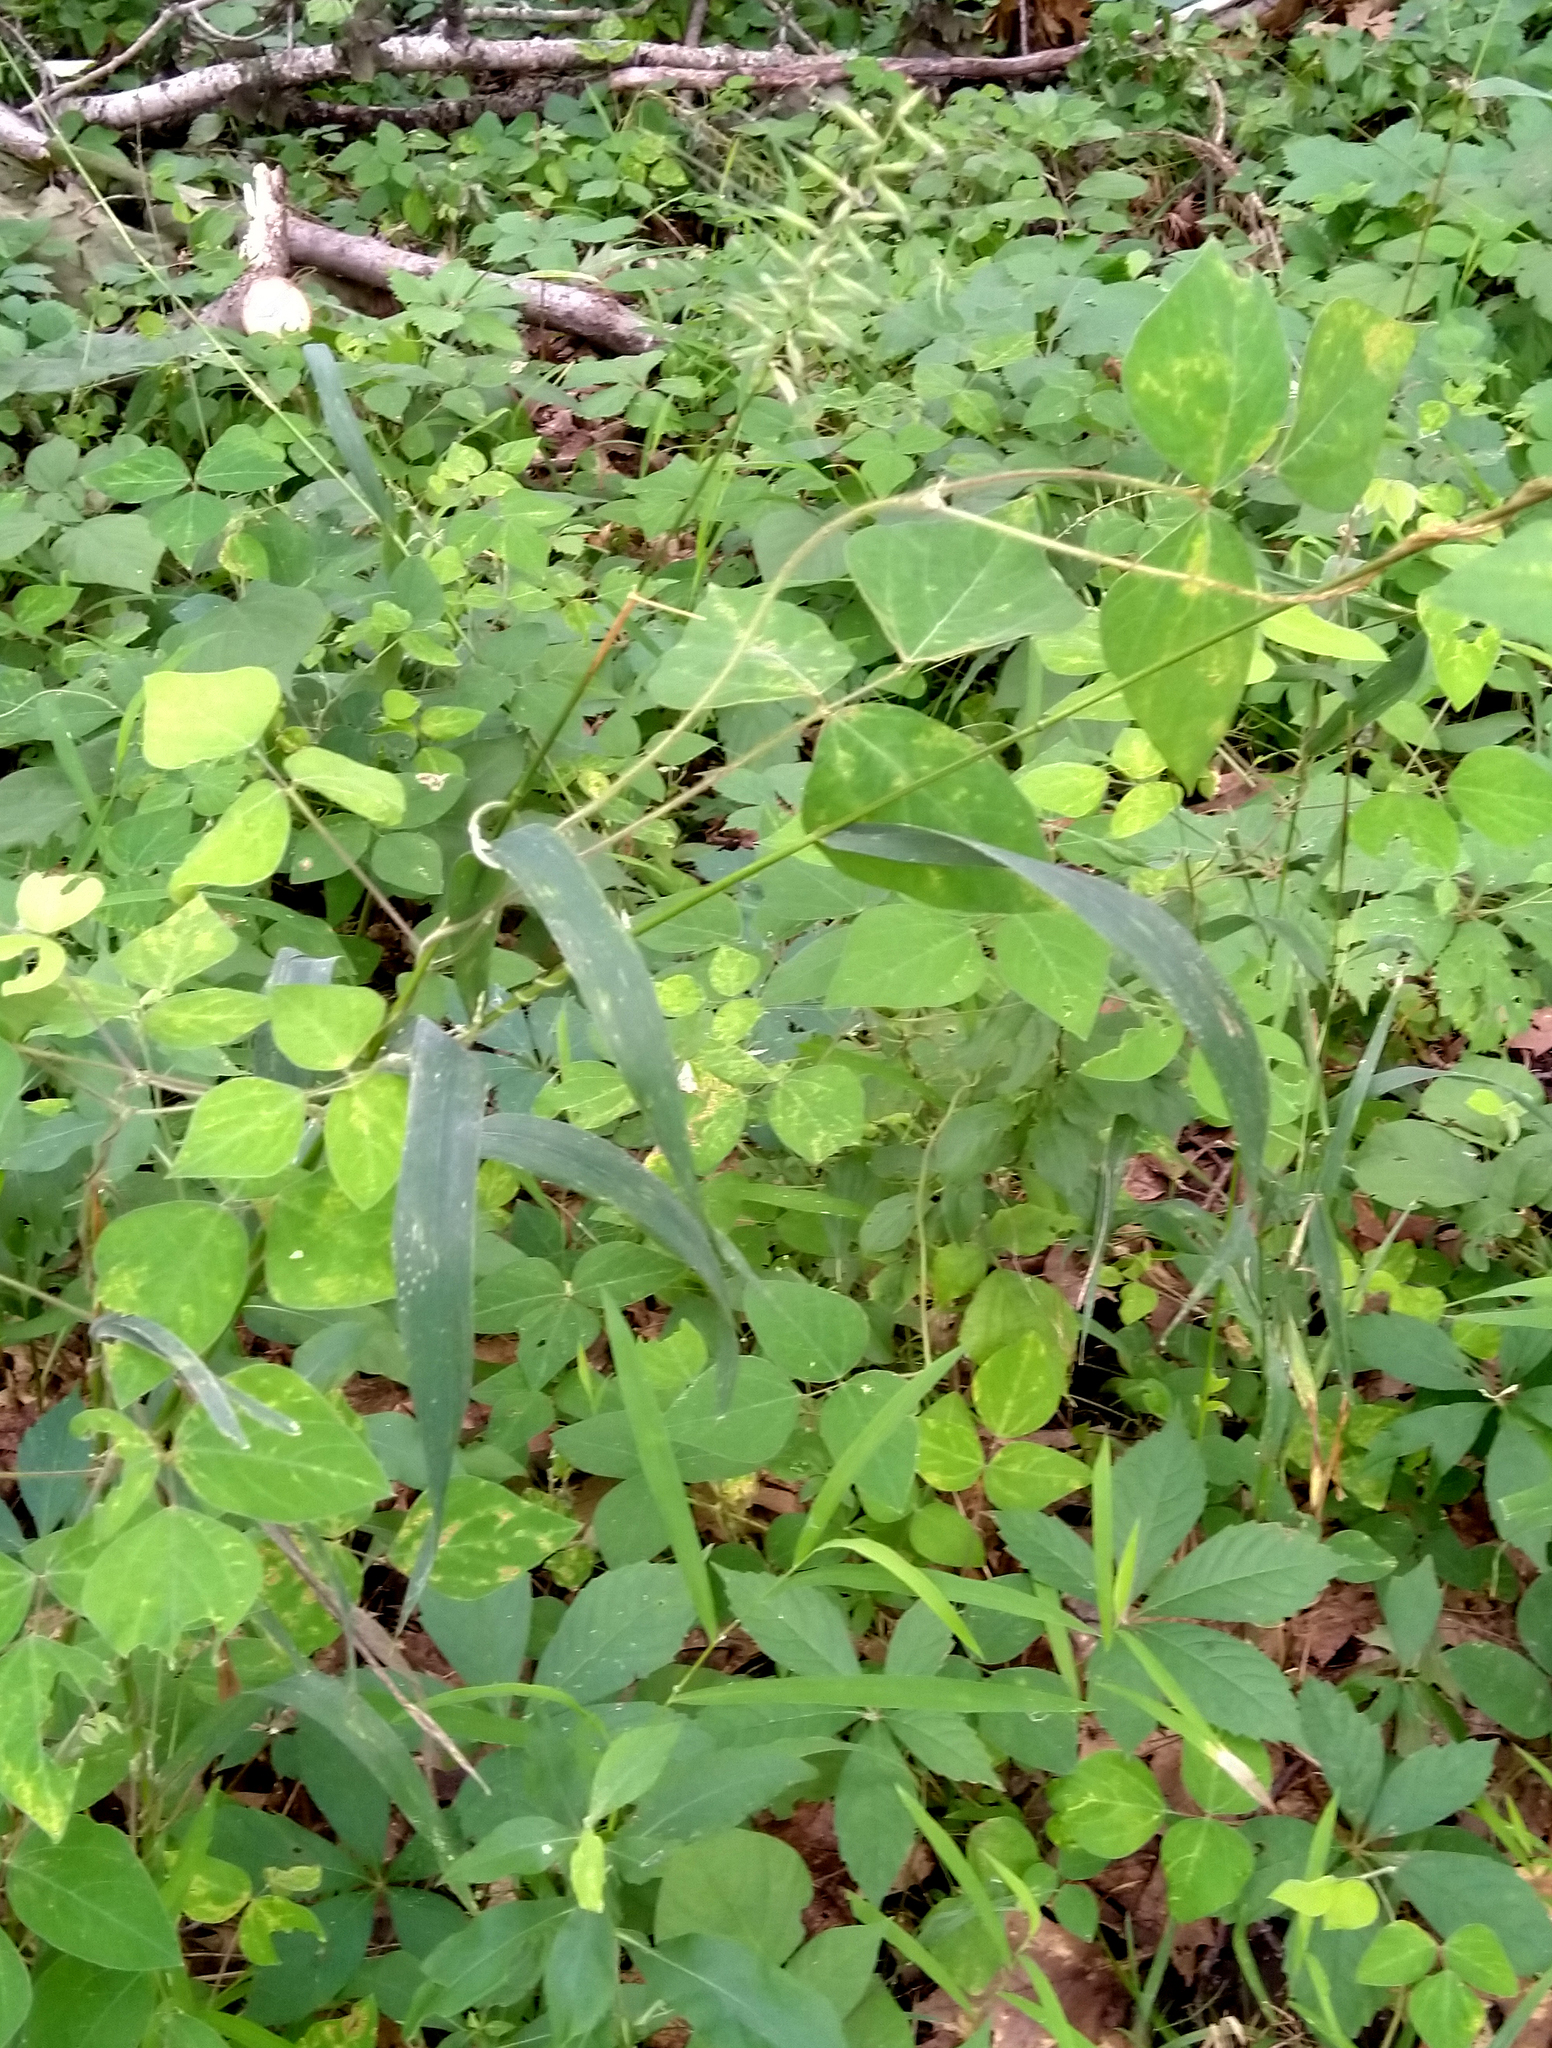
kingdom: Plantae
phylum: Tracheophyta
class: Liliopsida
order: Poales
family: Poaceae
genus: Elymus
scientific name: Elymus hystrix
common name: Bottlebrush grass
